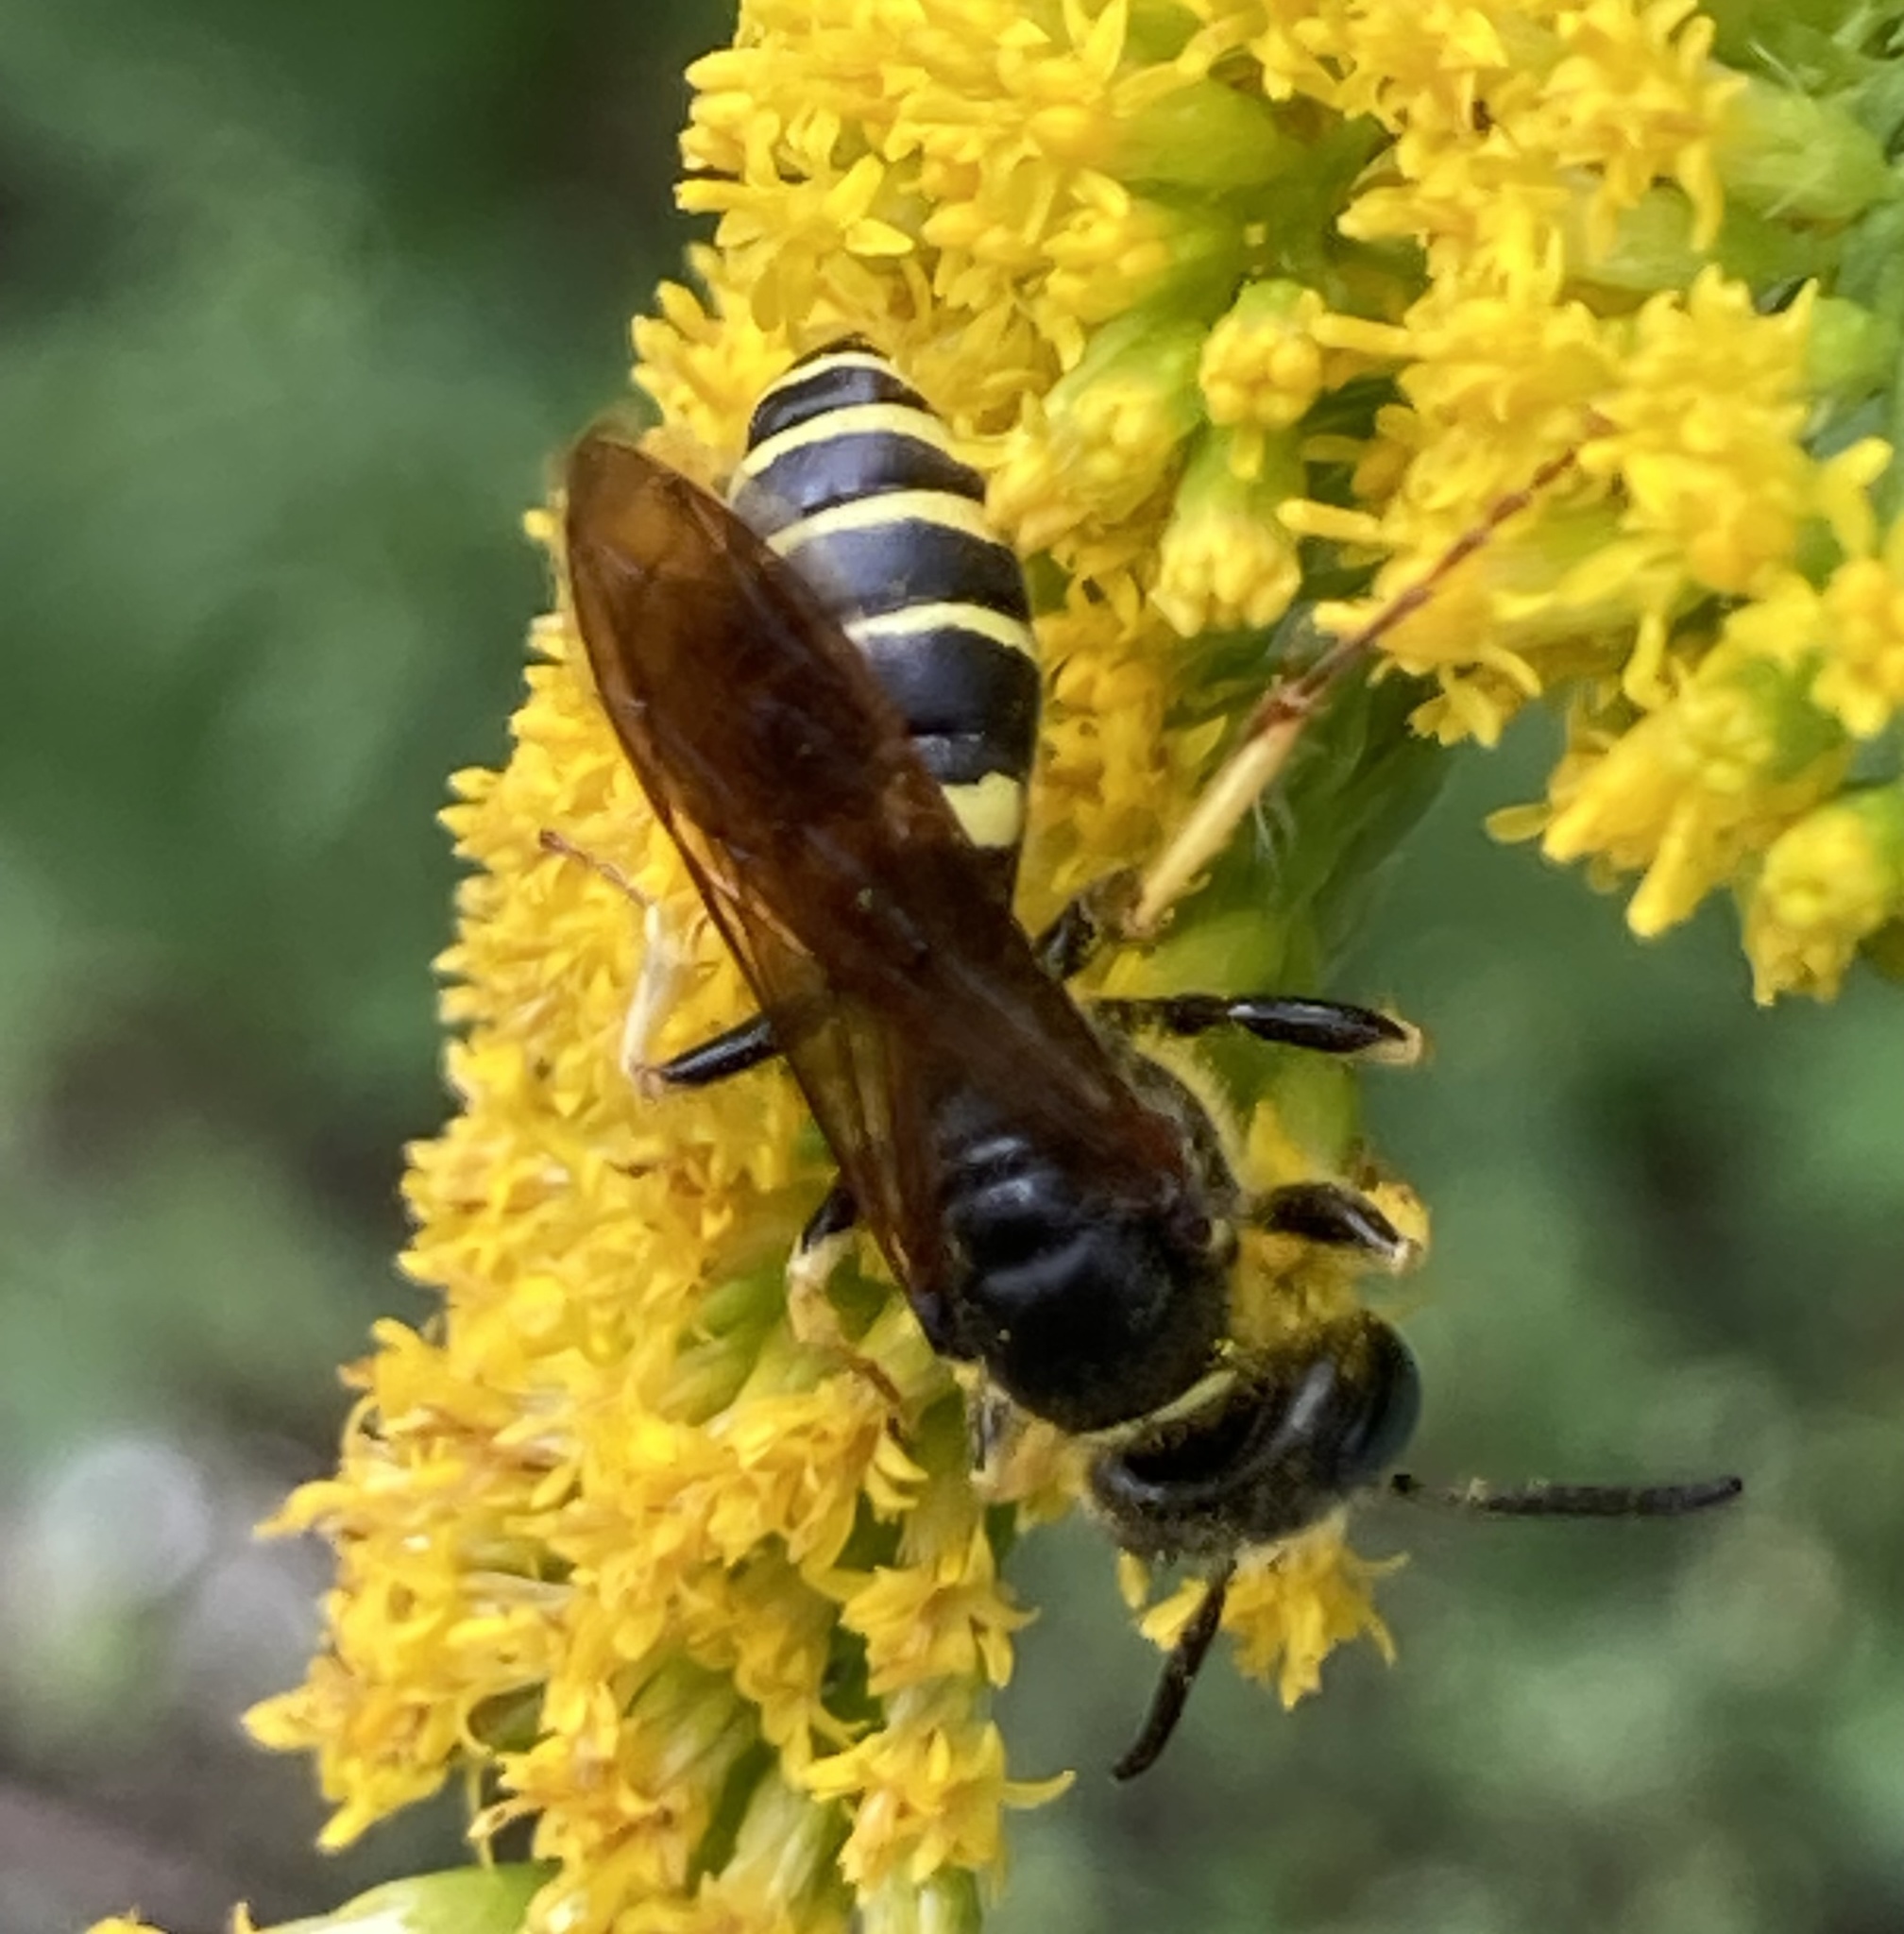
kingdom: Animalia
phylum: Arthropoda
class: Insecta
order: Hymenoptera
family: Crabronidae
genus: Philanthus
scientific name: Philanthus solivagus
